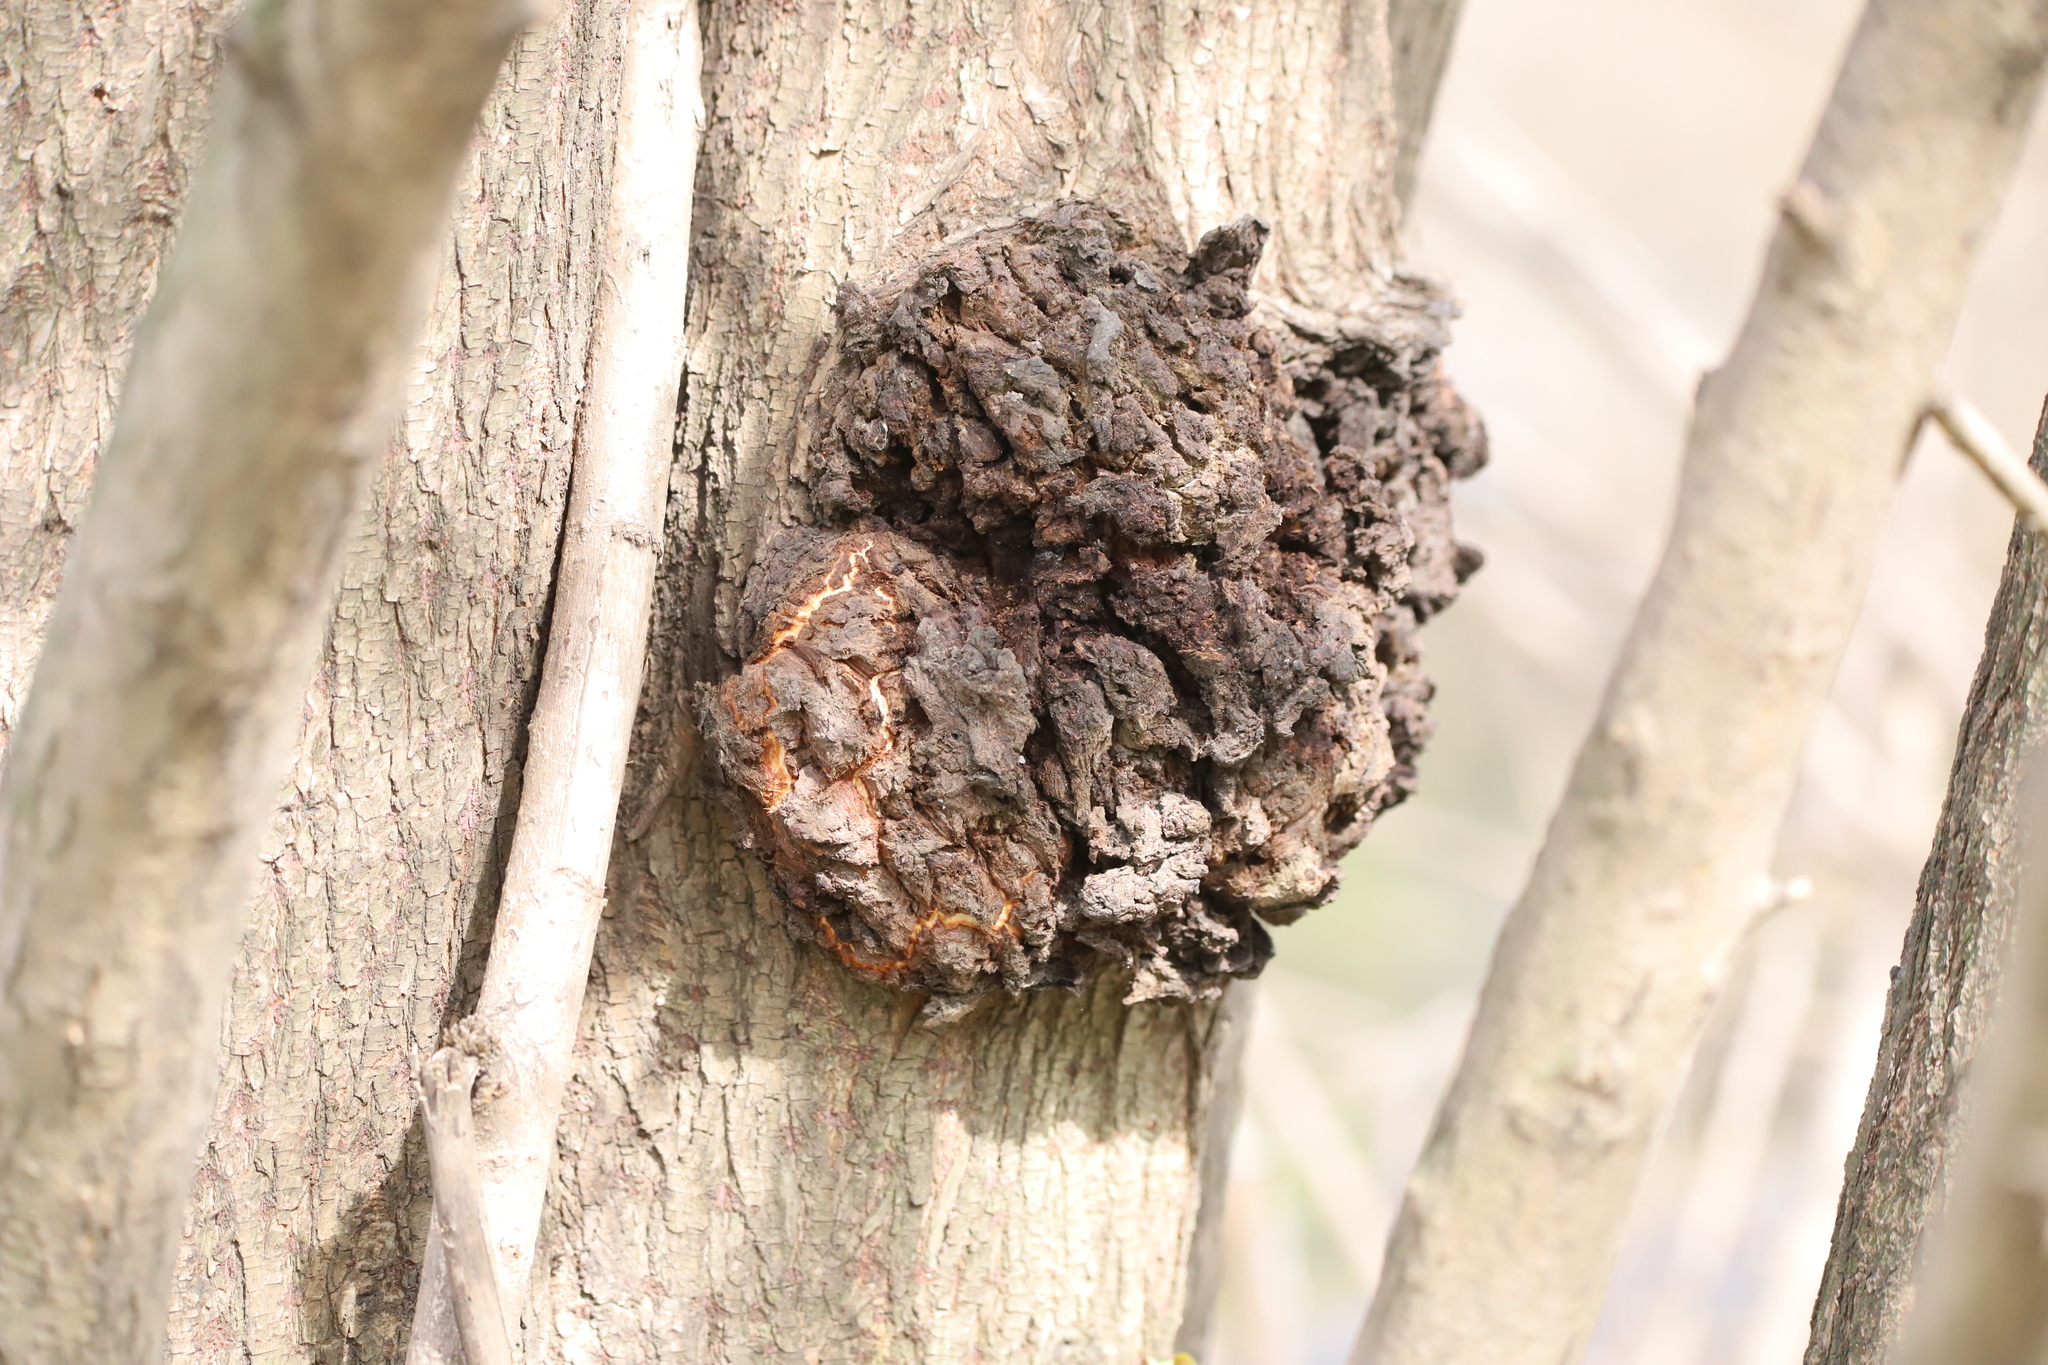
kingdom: Bacteria
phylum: Proteobacteria
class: Alphaproteobacteria
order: Rhizobiales
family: Rhizobiaceae
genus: Rhizobium
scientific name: Rhizobium Agrobacterium radiobacter
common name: Bacterial crown gall
